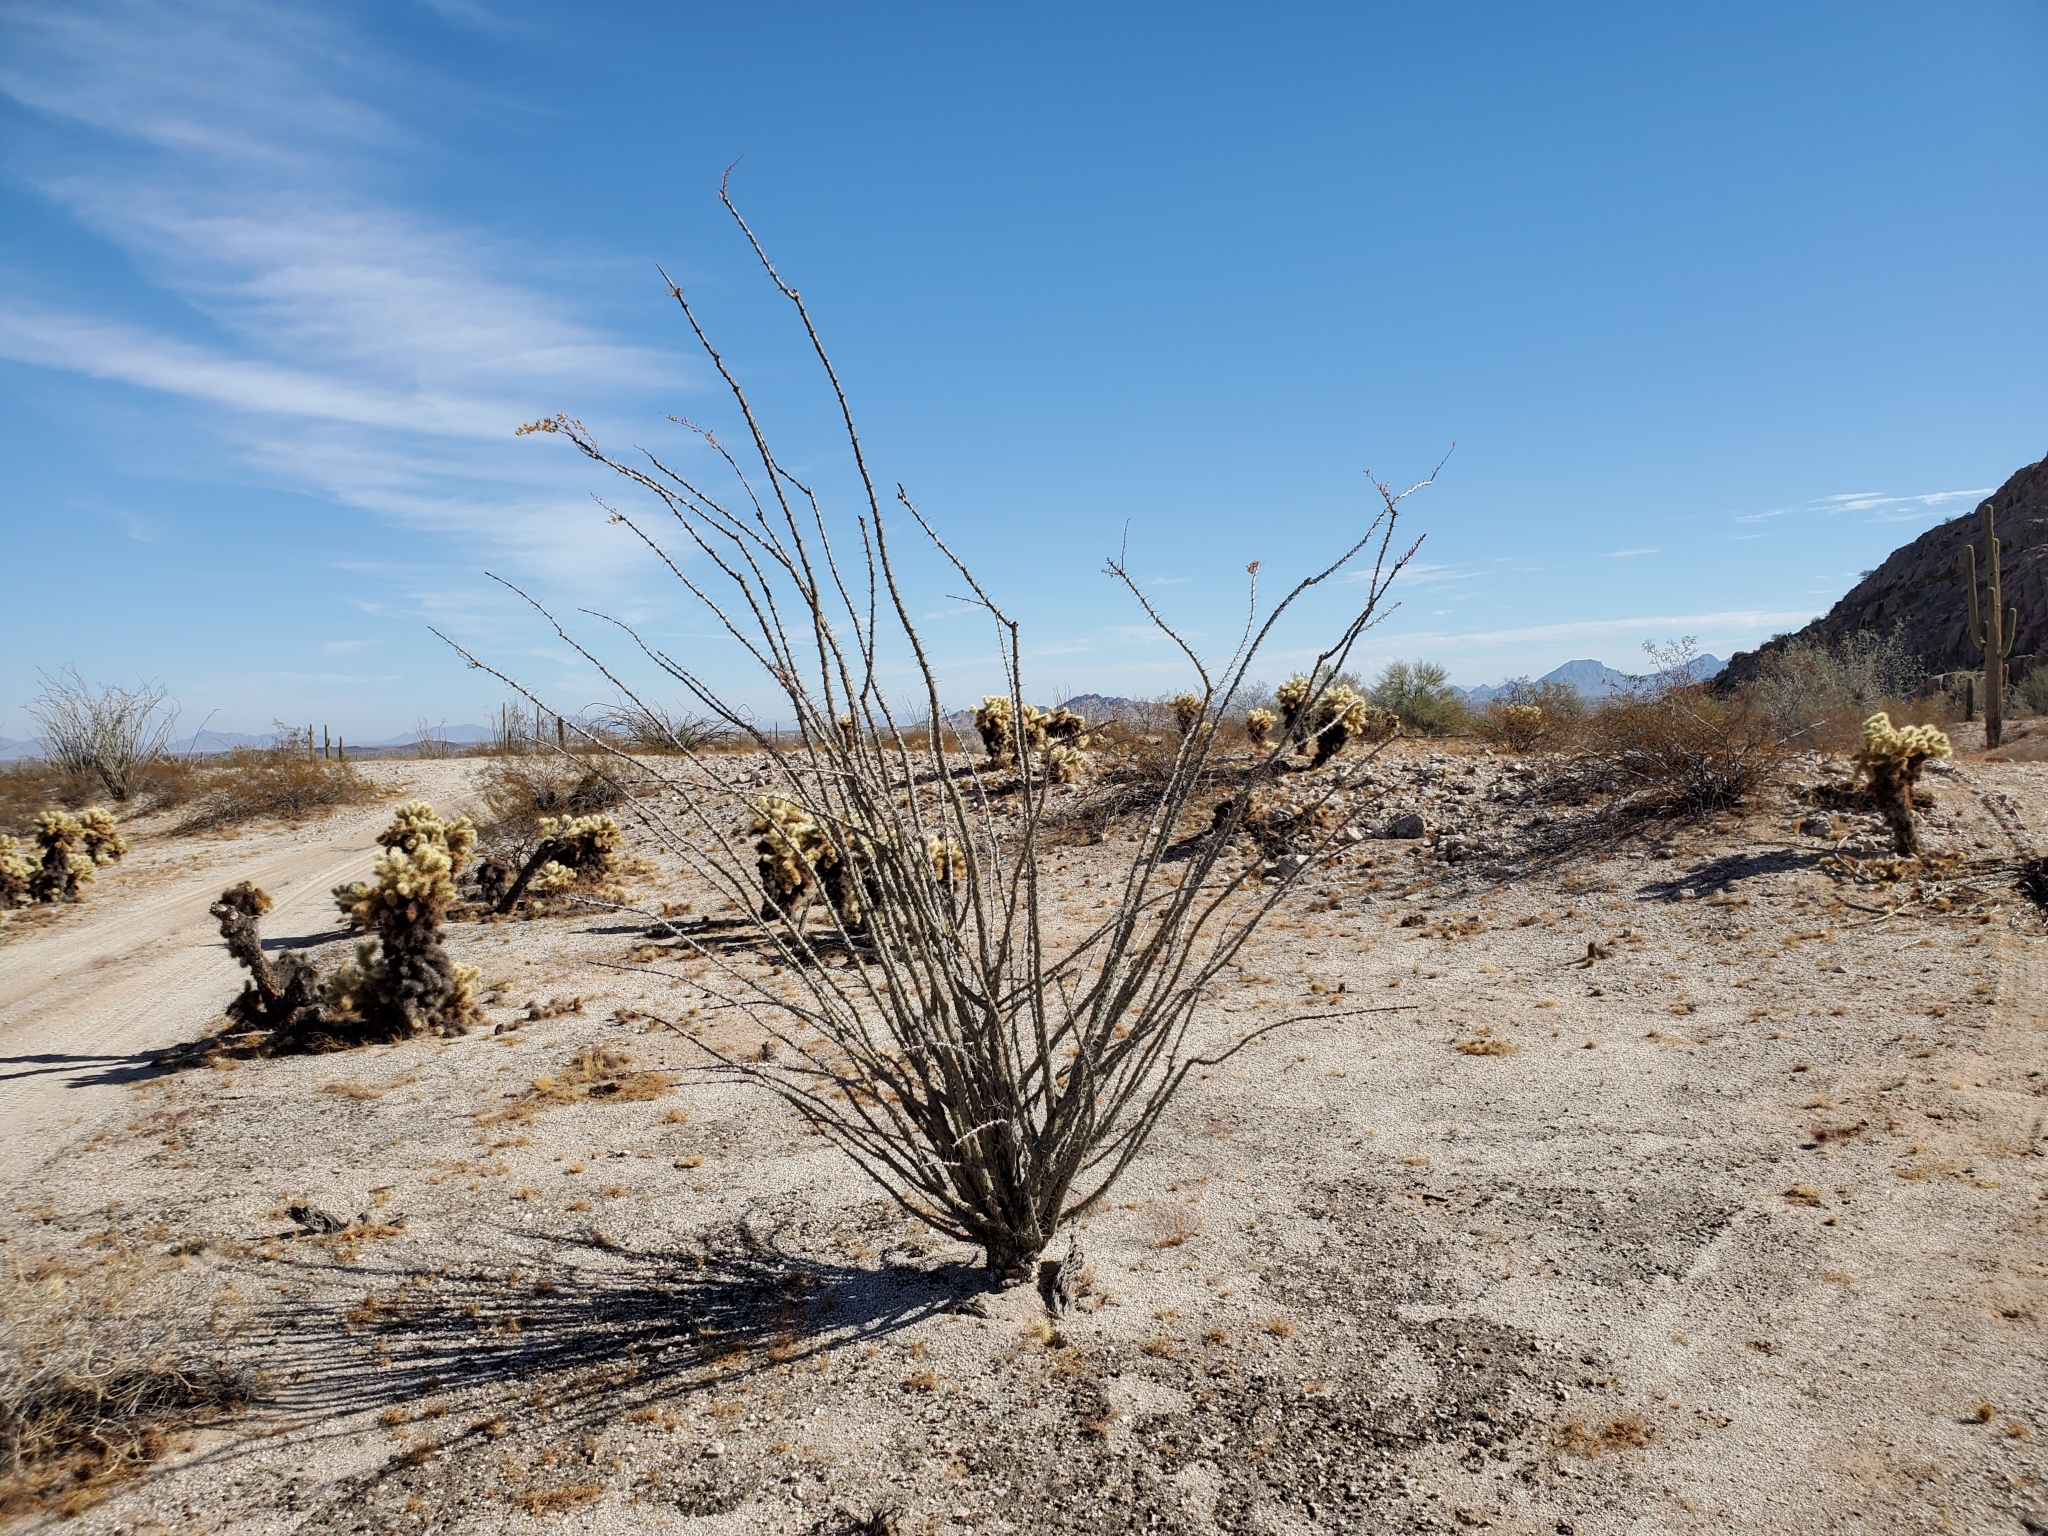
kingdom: Plantae
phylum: Tracheophyta
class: Magnoliopsida
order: Ericales
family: Fouquieriaceae
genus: Fouquieria
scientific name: Fouquieria splendens
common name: Vine-cactus
